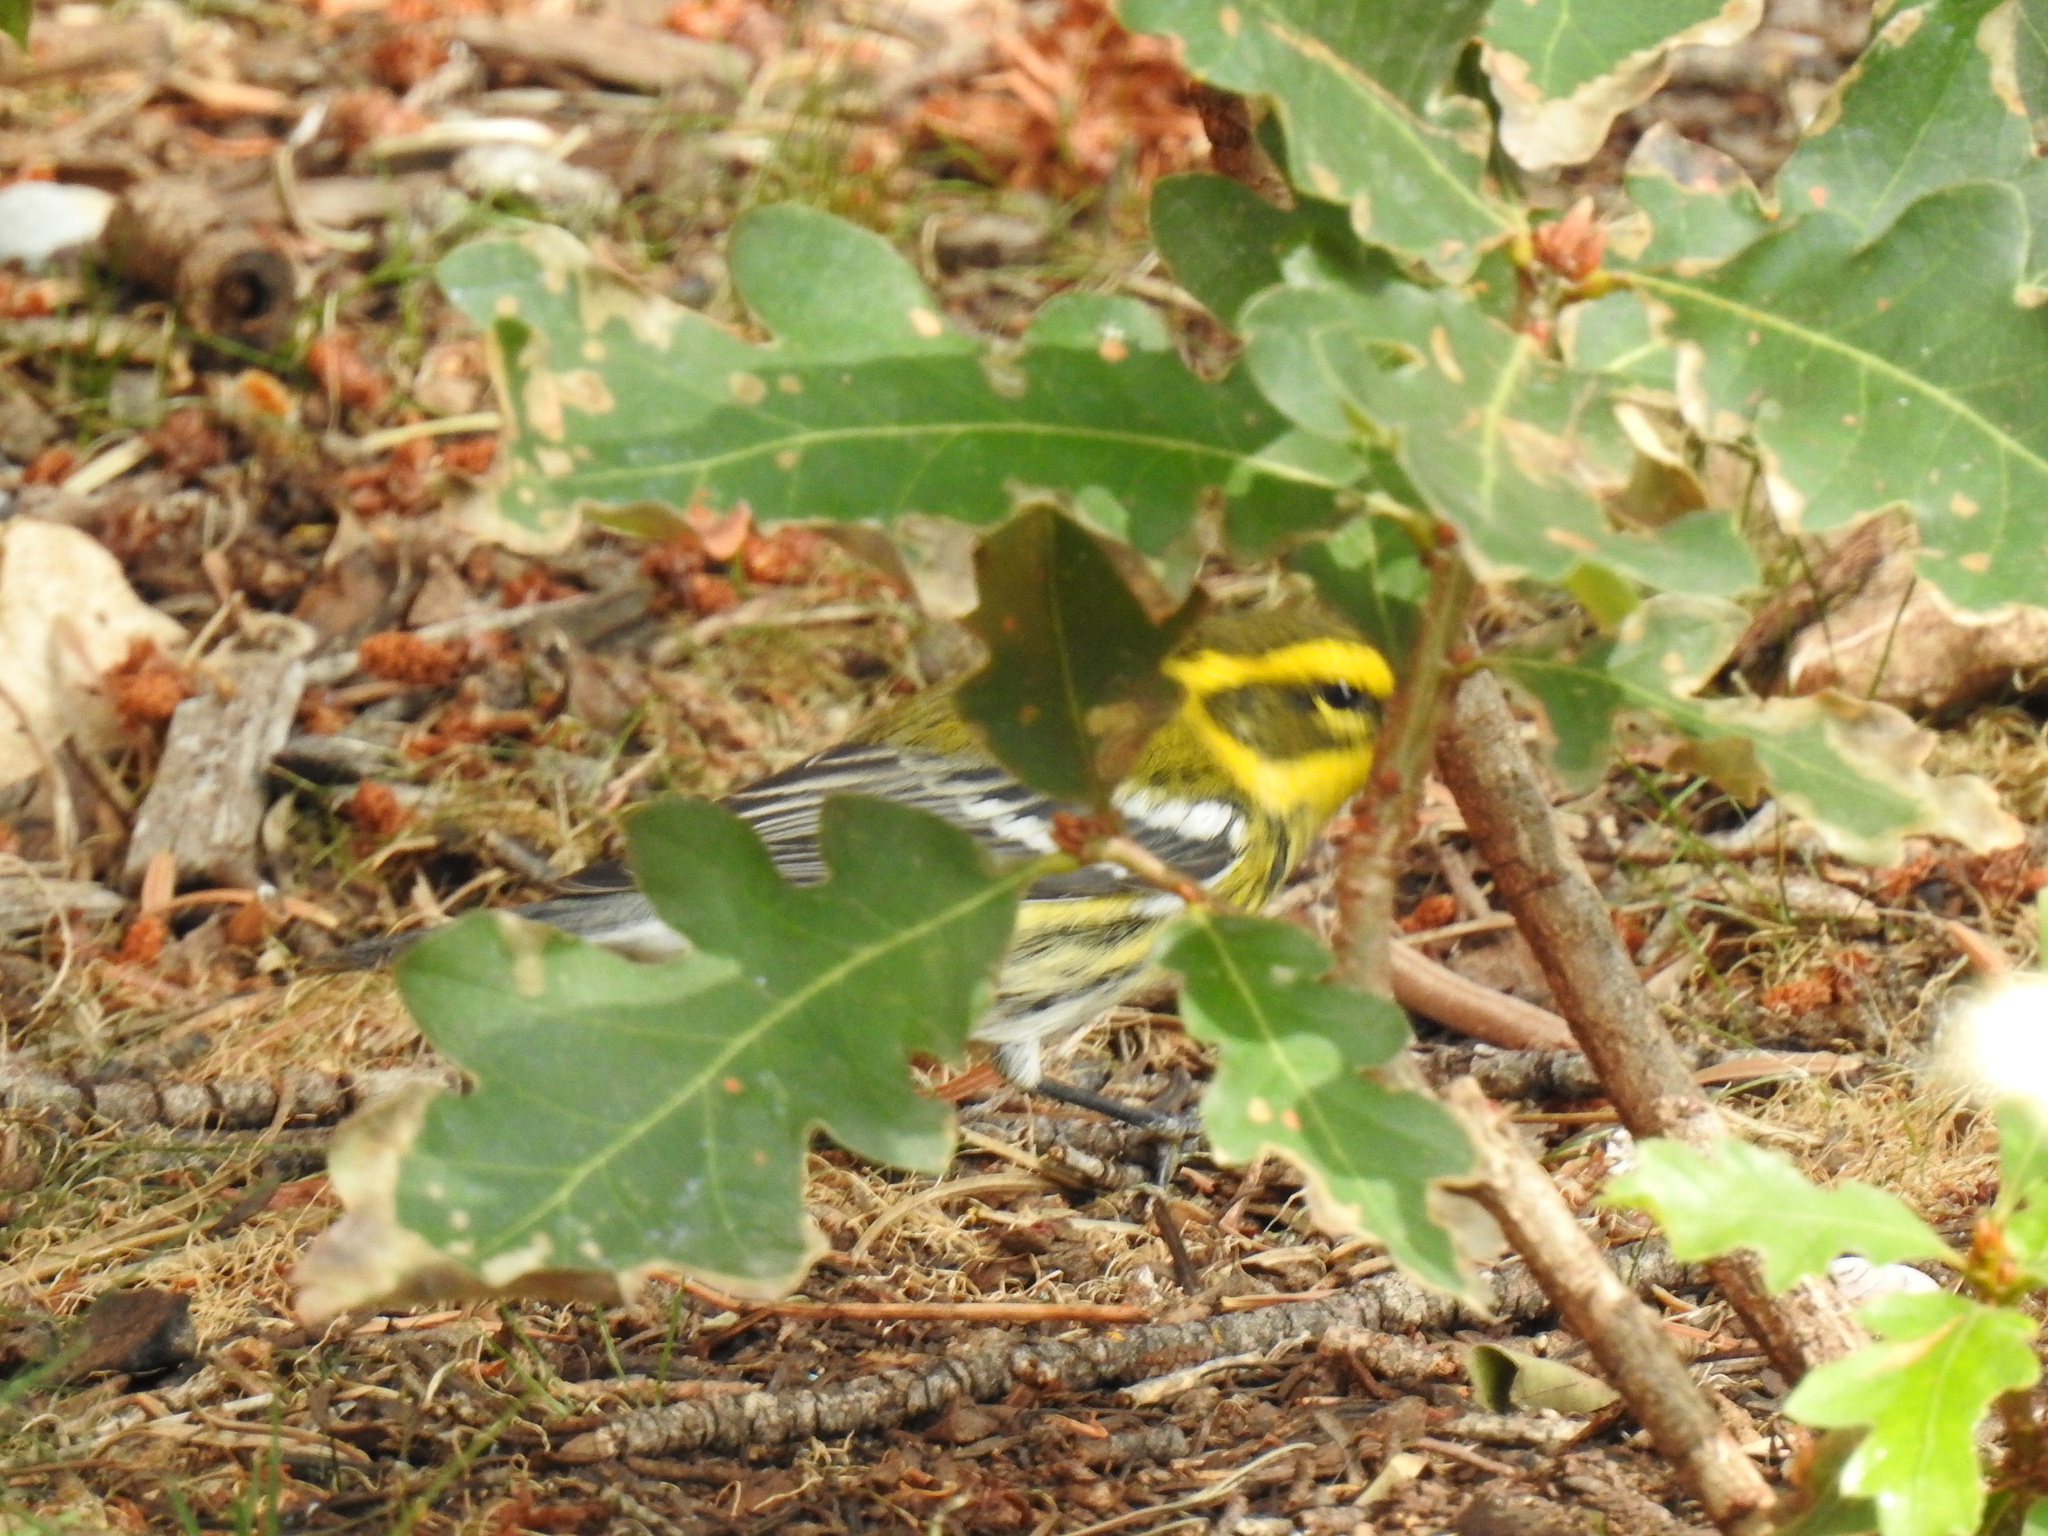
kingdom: Animalia
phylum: Chordata
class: Aves
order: Passeriformes
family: Parulidae
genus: Setophaga
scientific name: Setophaga townsendi
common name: Townsend's warbler
